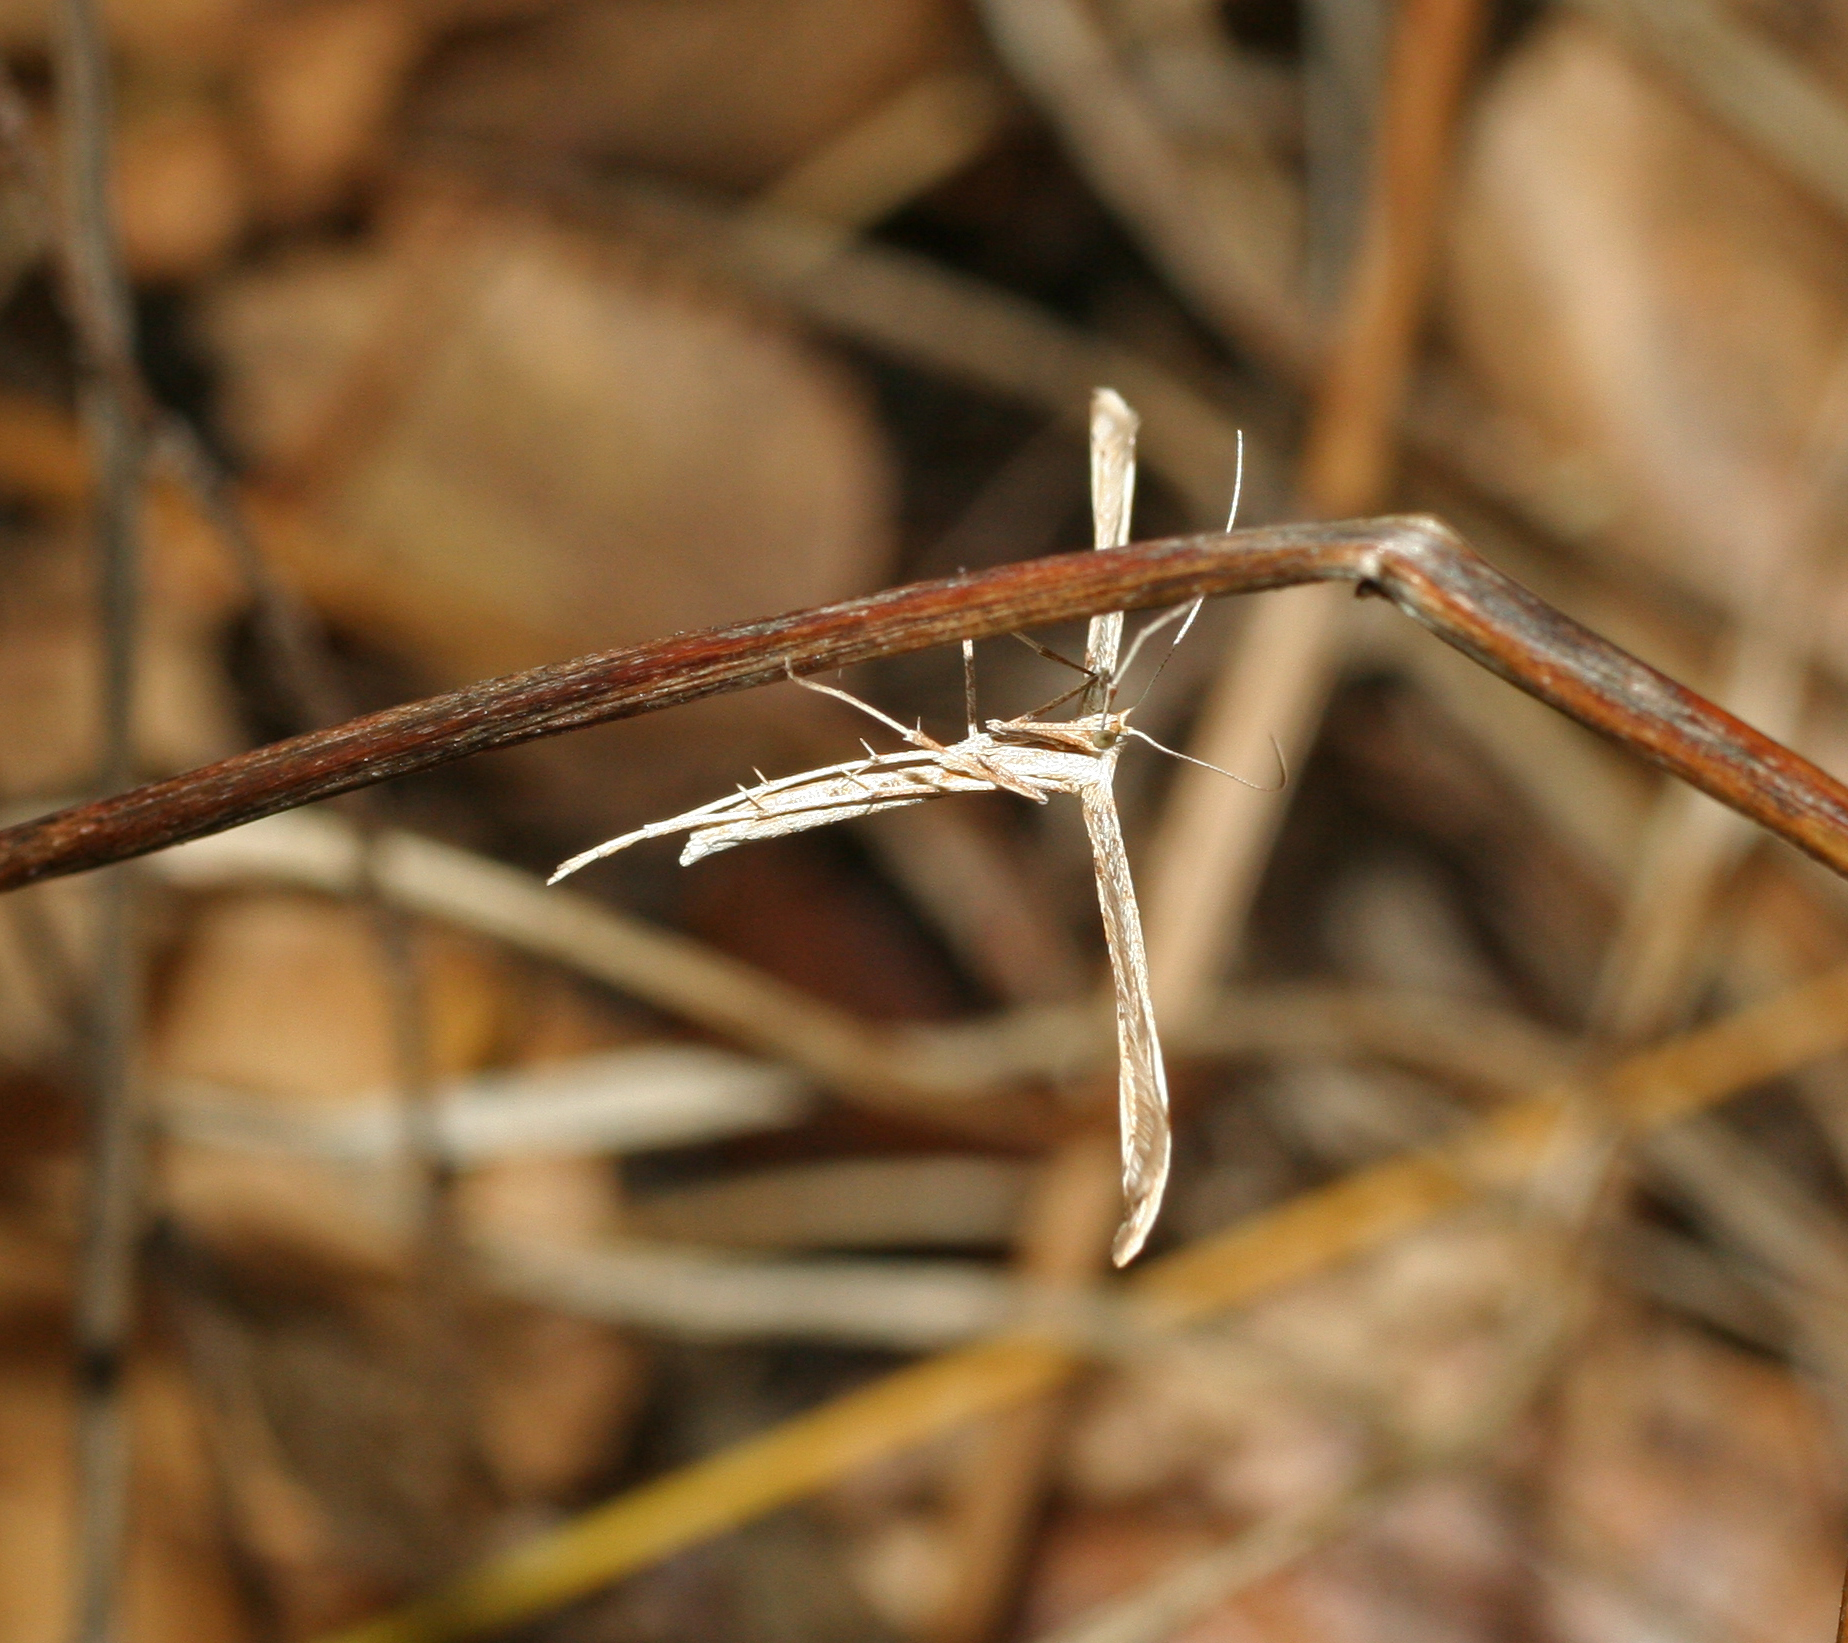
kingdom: Animalia
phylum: Arthropoda
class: Insecta
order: Lepidoptera
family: Pterophoridae
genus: Emmelina
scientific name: Emmelina monodactyla
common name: Common plume
